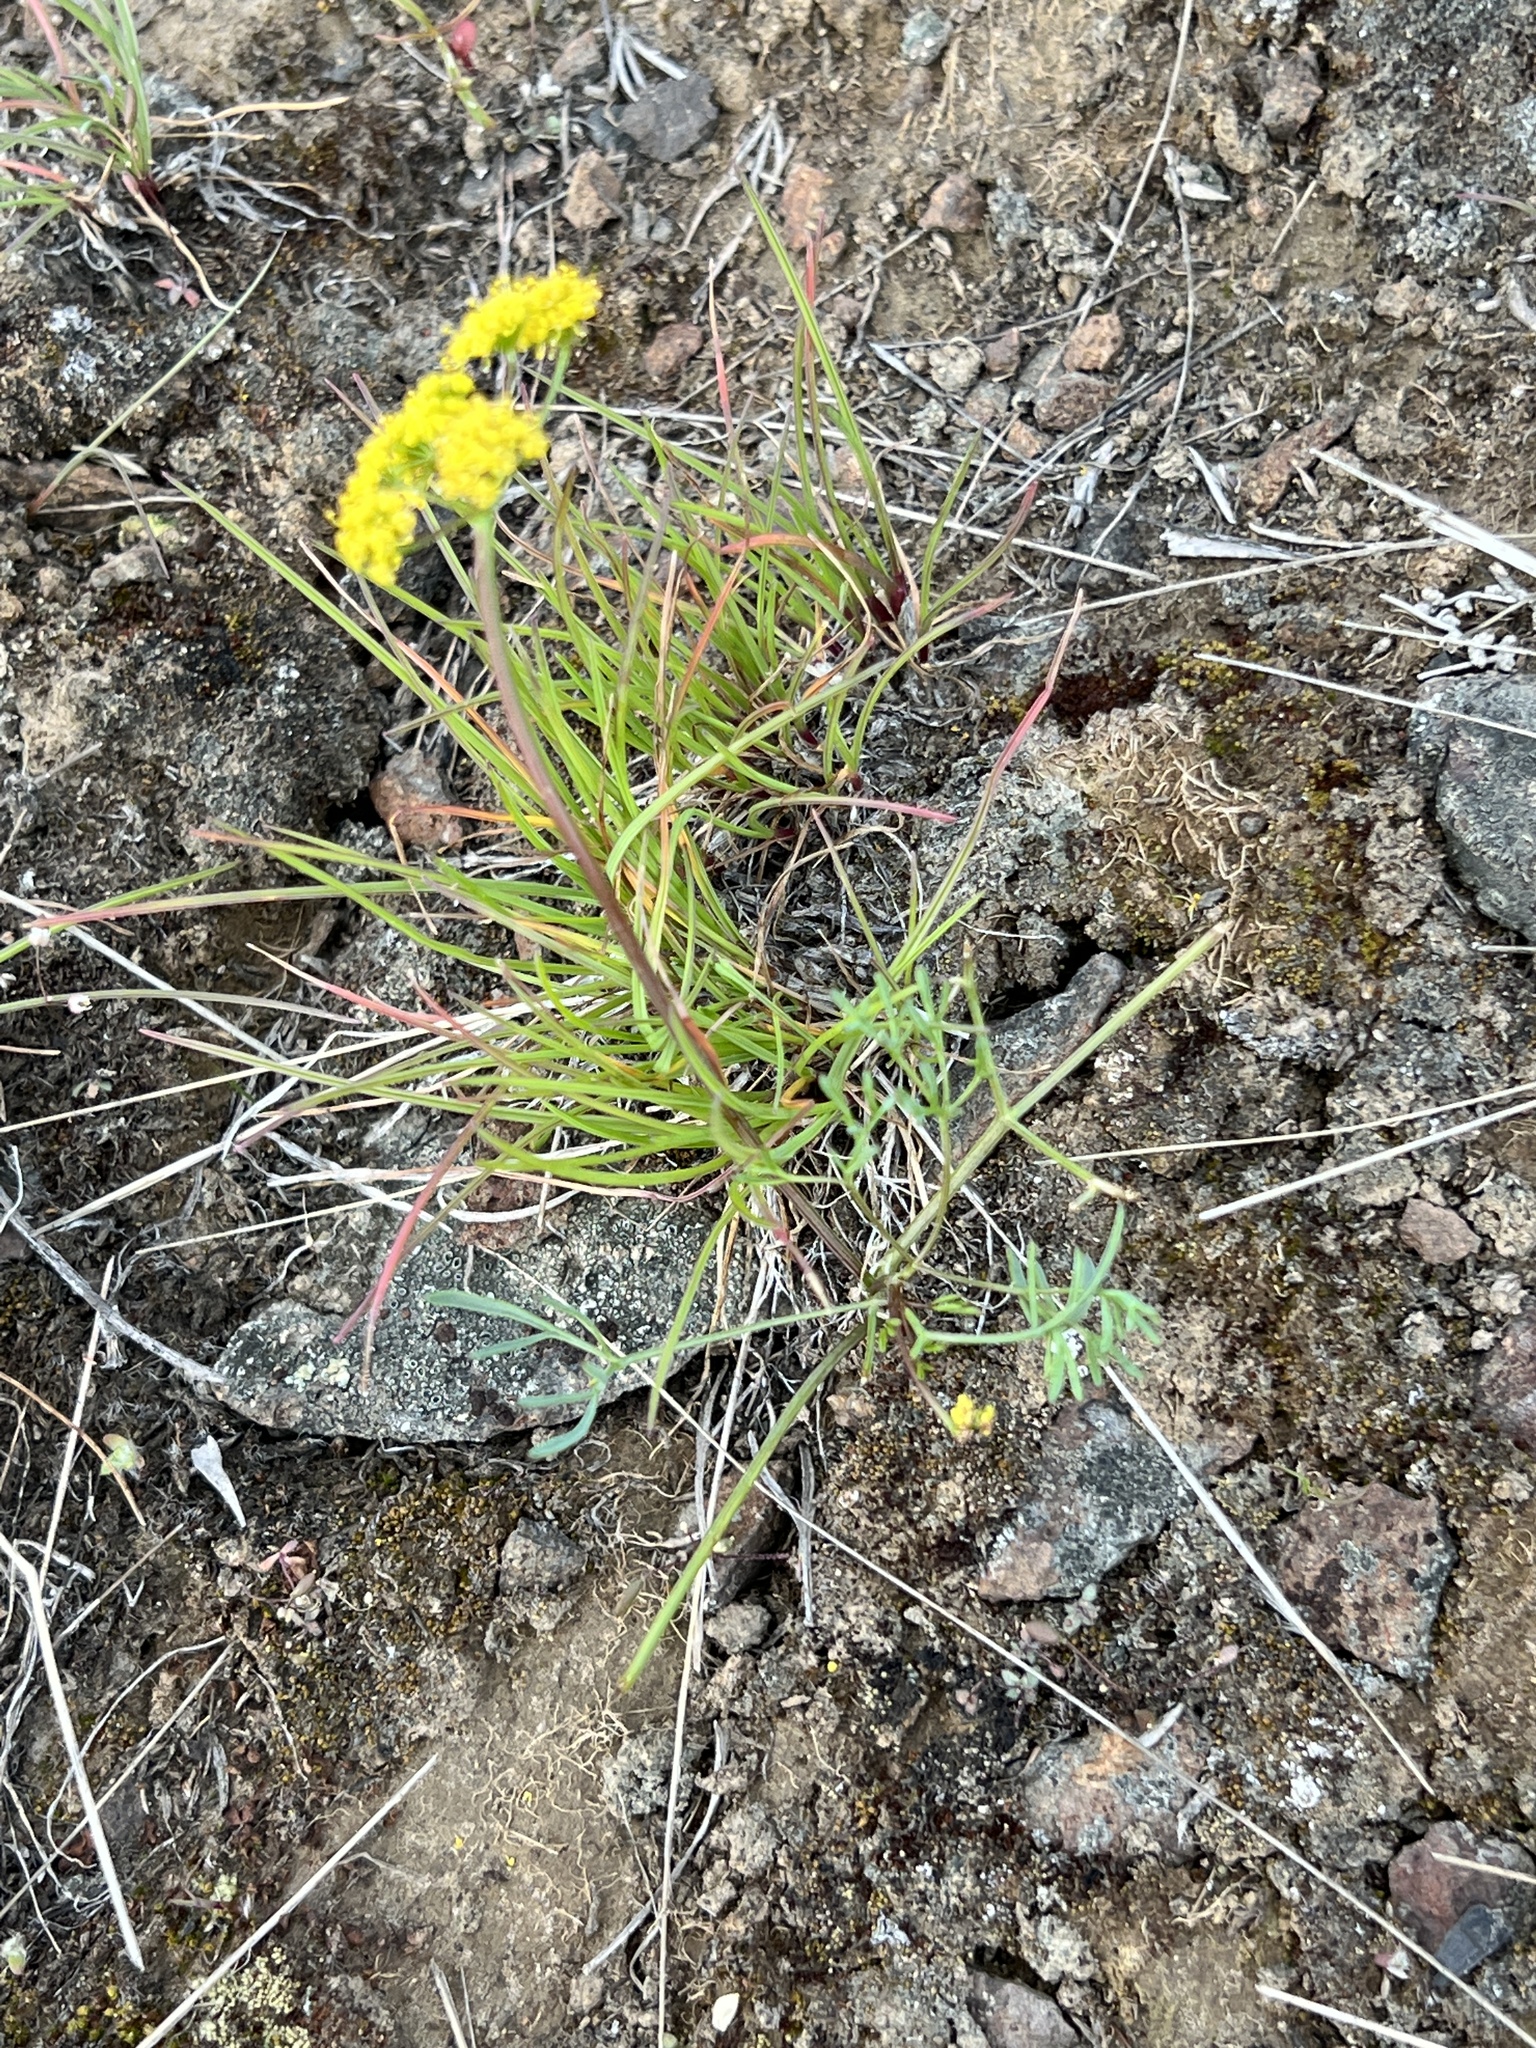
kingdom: Plantae
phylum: Tracheophyta
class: Magnoliopsida
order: Apiales
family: Apiaceae
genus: Lomatium
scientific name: Lomatium ambiguum
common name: Lacy lomatium
